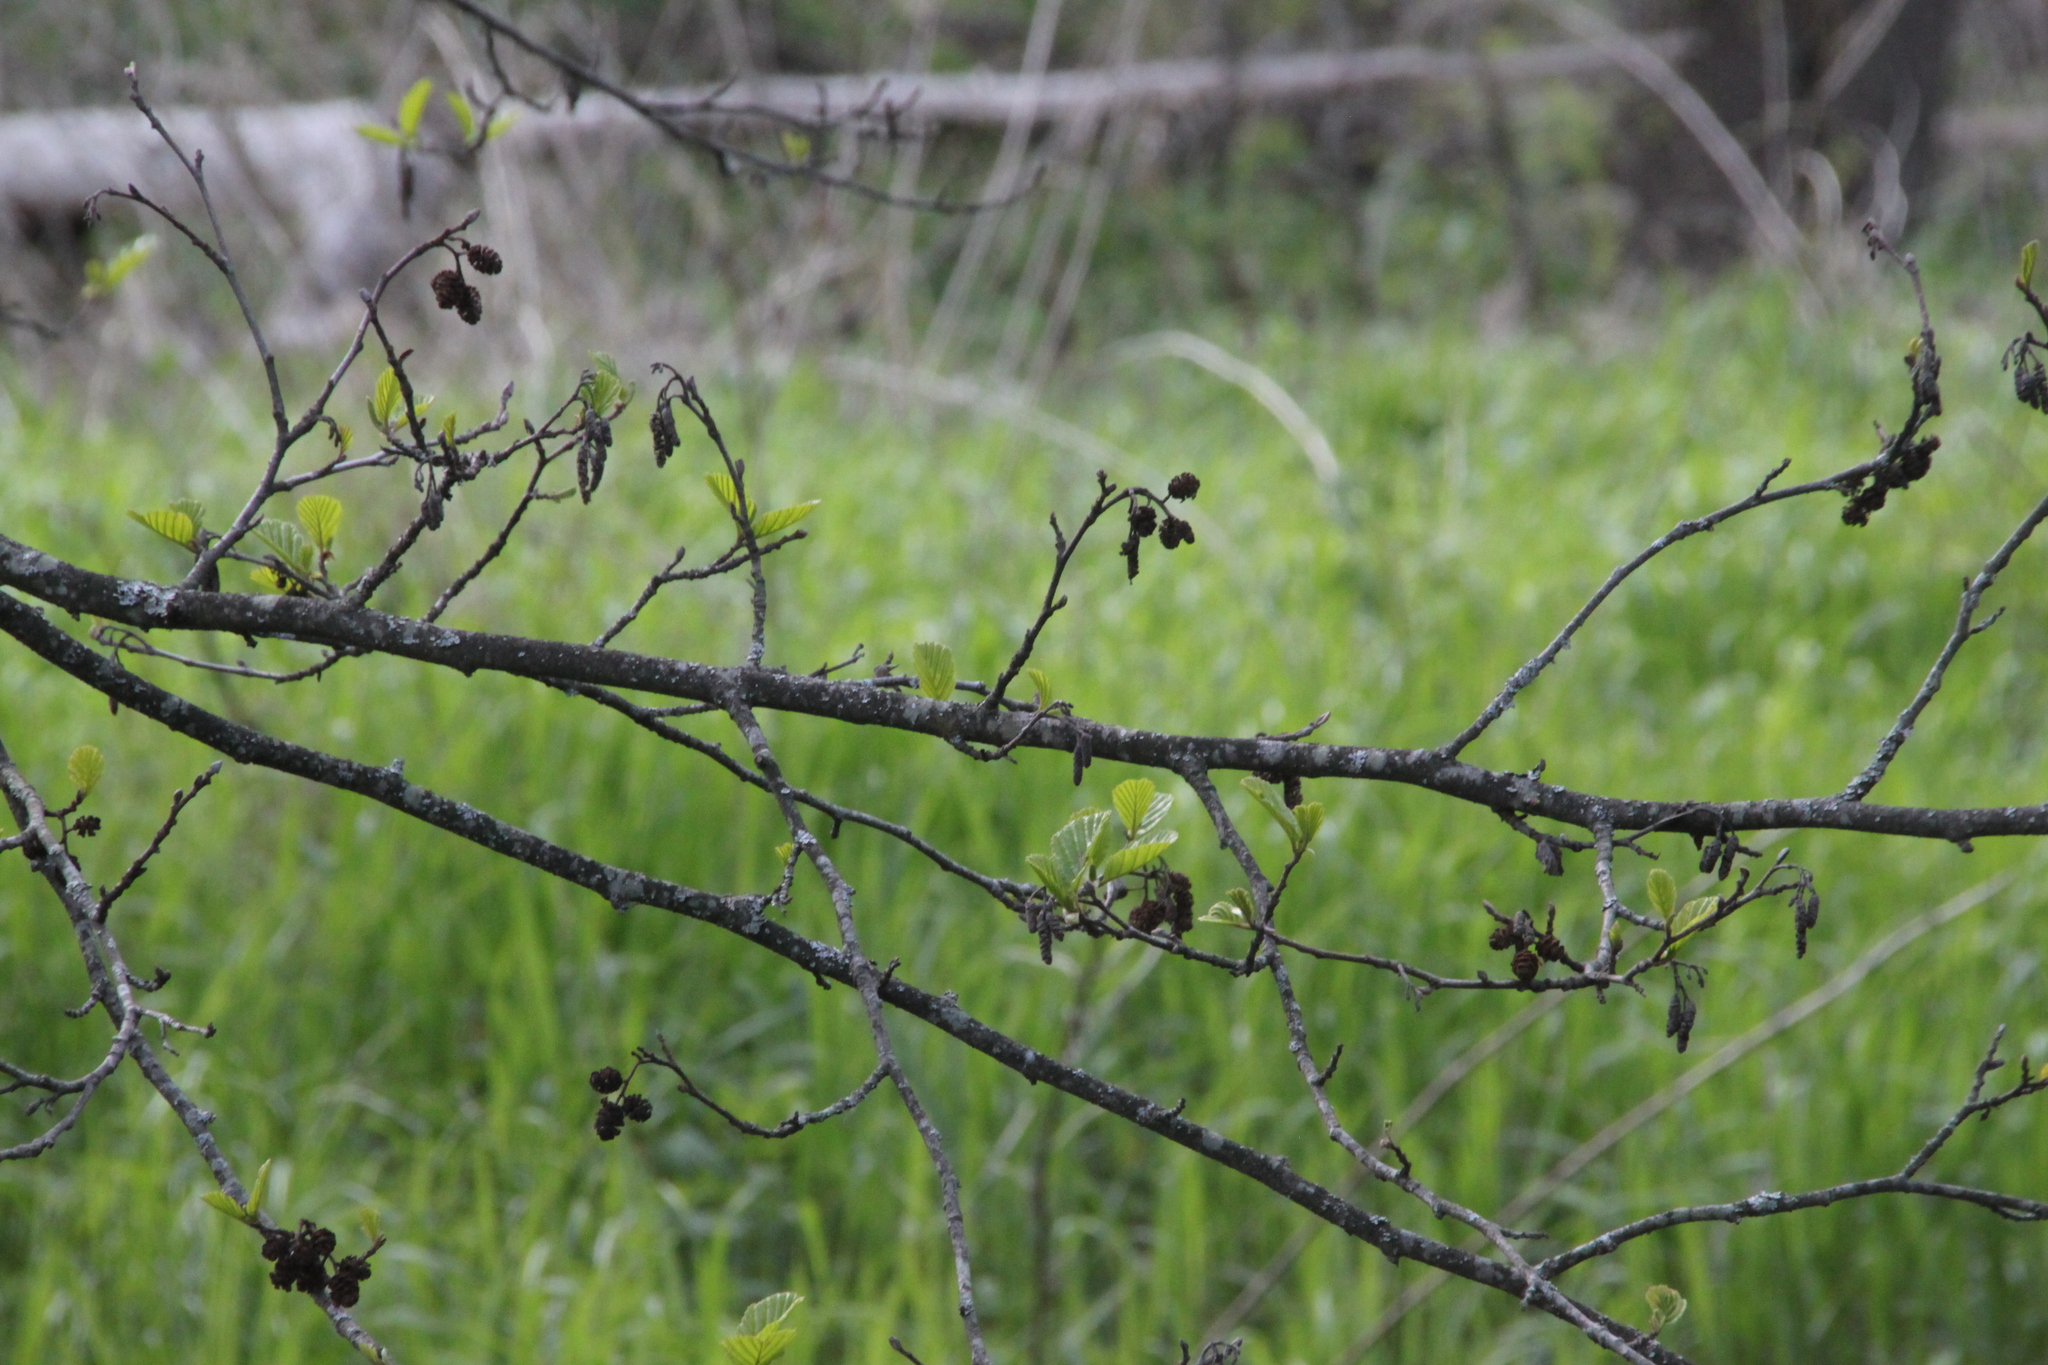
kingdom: Plantae
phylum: Tracheophyta
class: Magnoliopsida
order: Fagales
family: Betulaceae
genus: Alnus
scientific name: Alnus glutinosa
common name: Black alder
